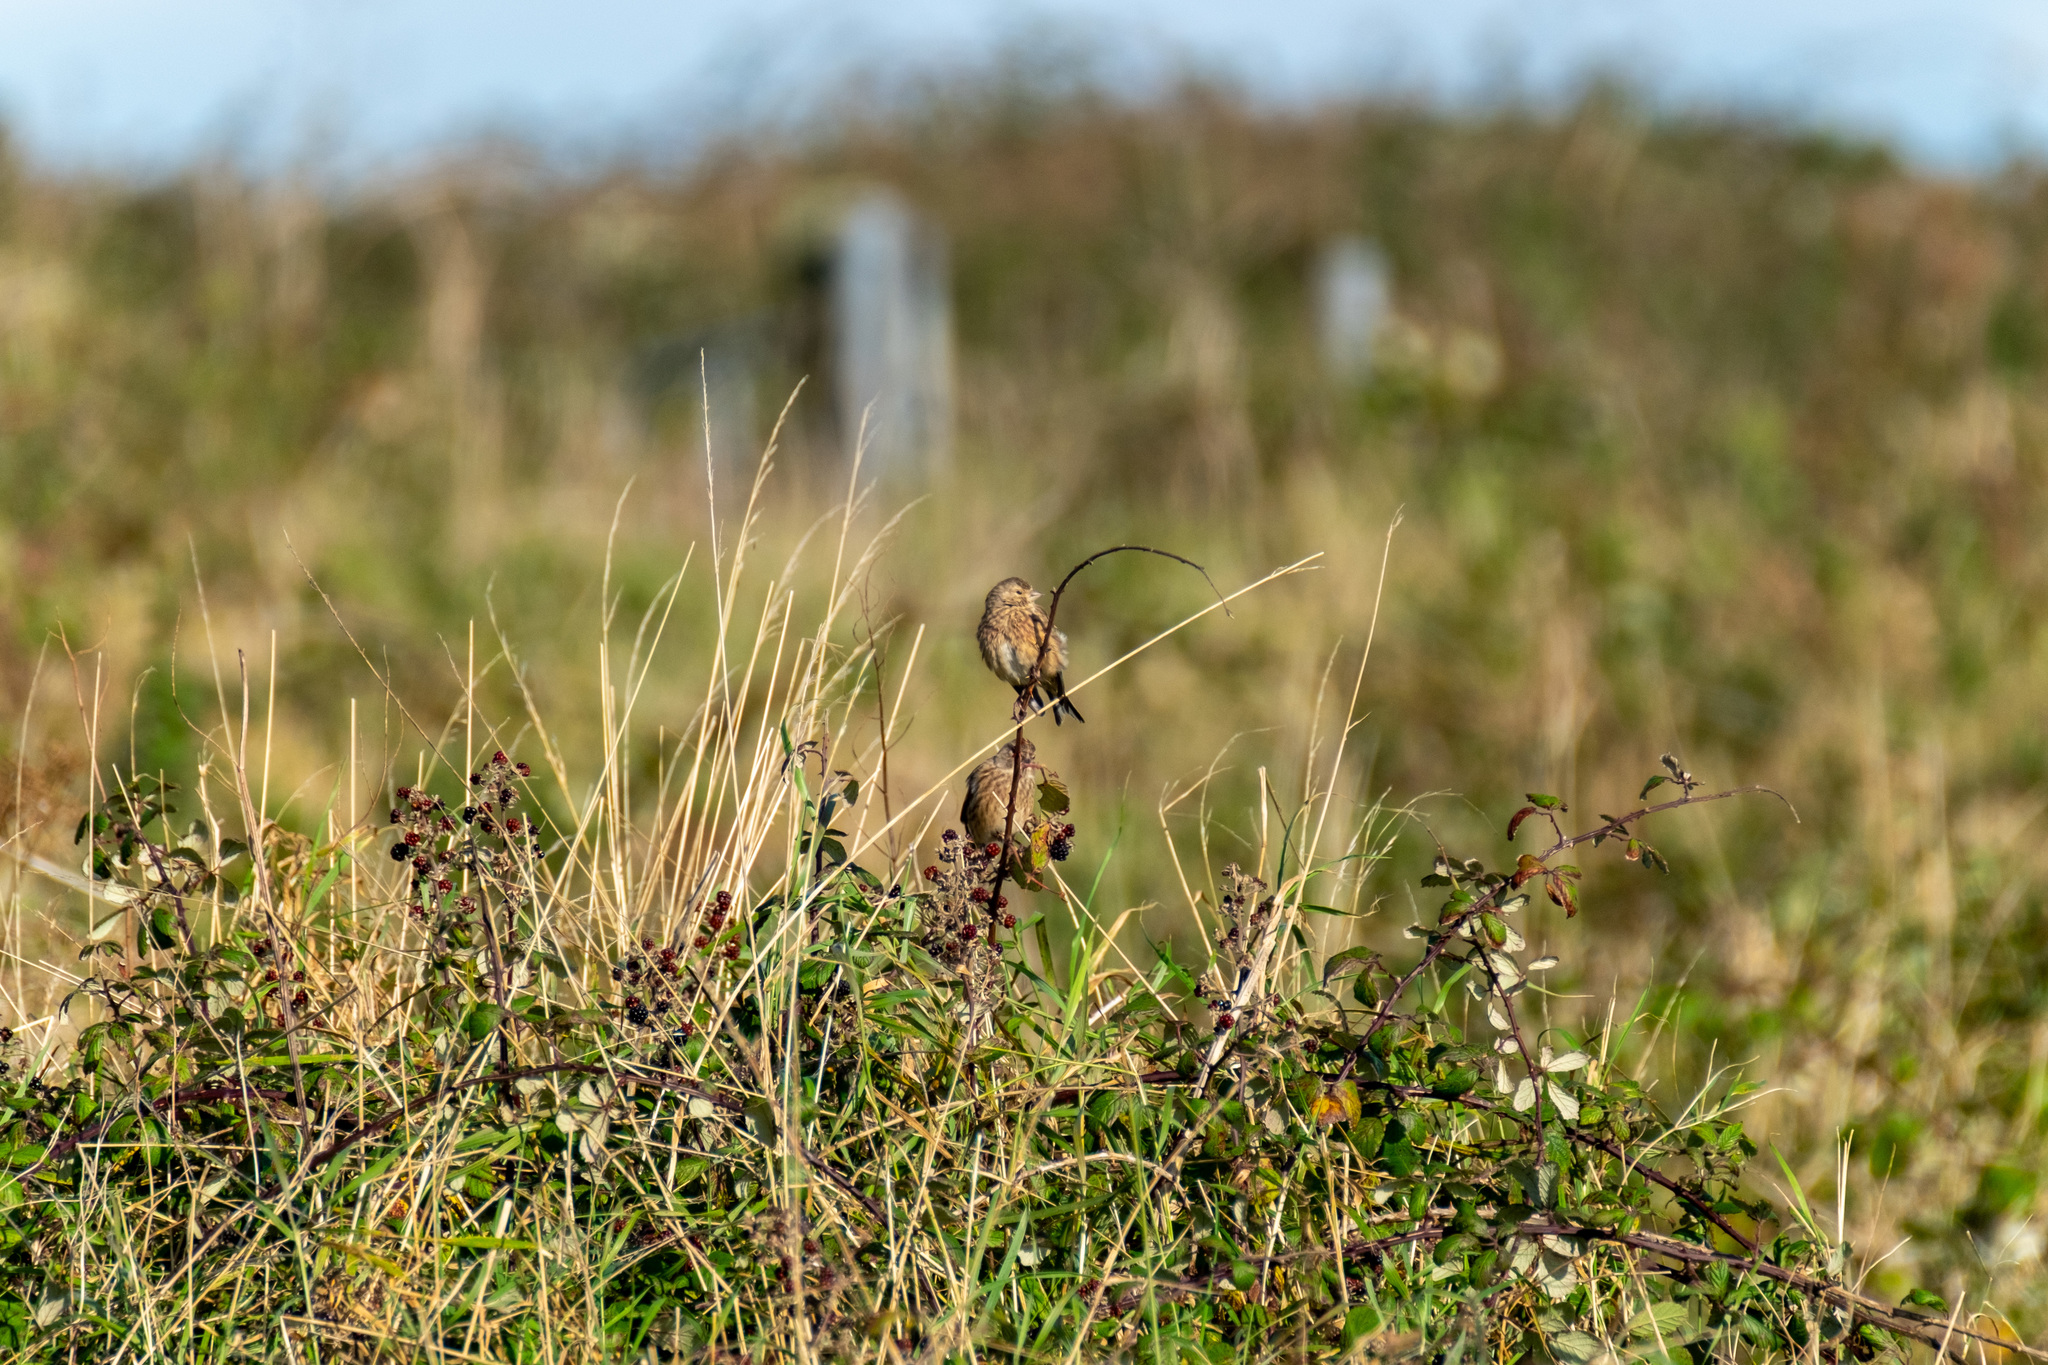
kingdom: Animalia
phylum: Chordata
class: Aves
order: Passeriformes
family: Fringillidae
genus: Linaria
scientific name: Linaria cannabina
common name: Common linnet
